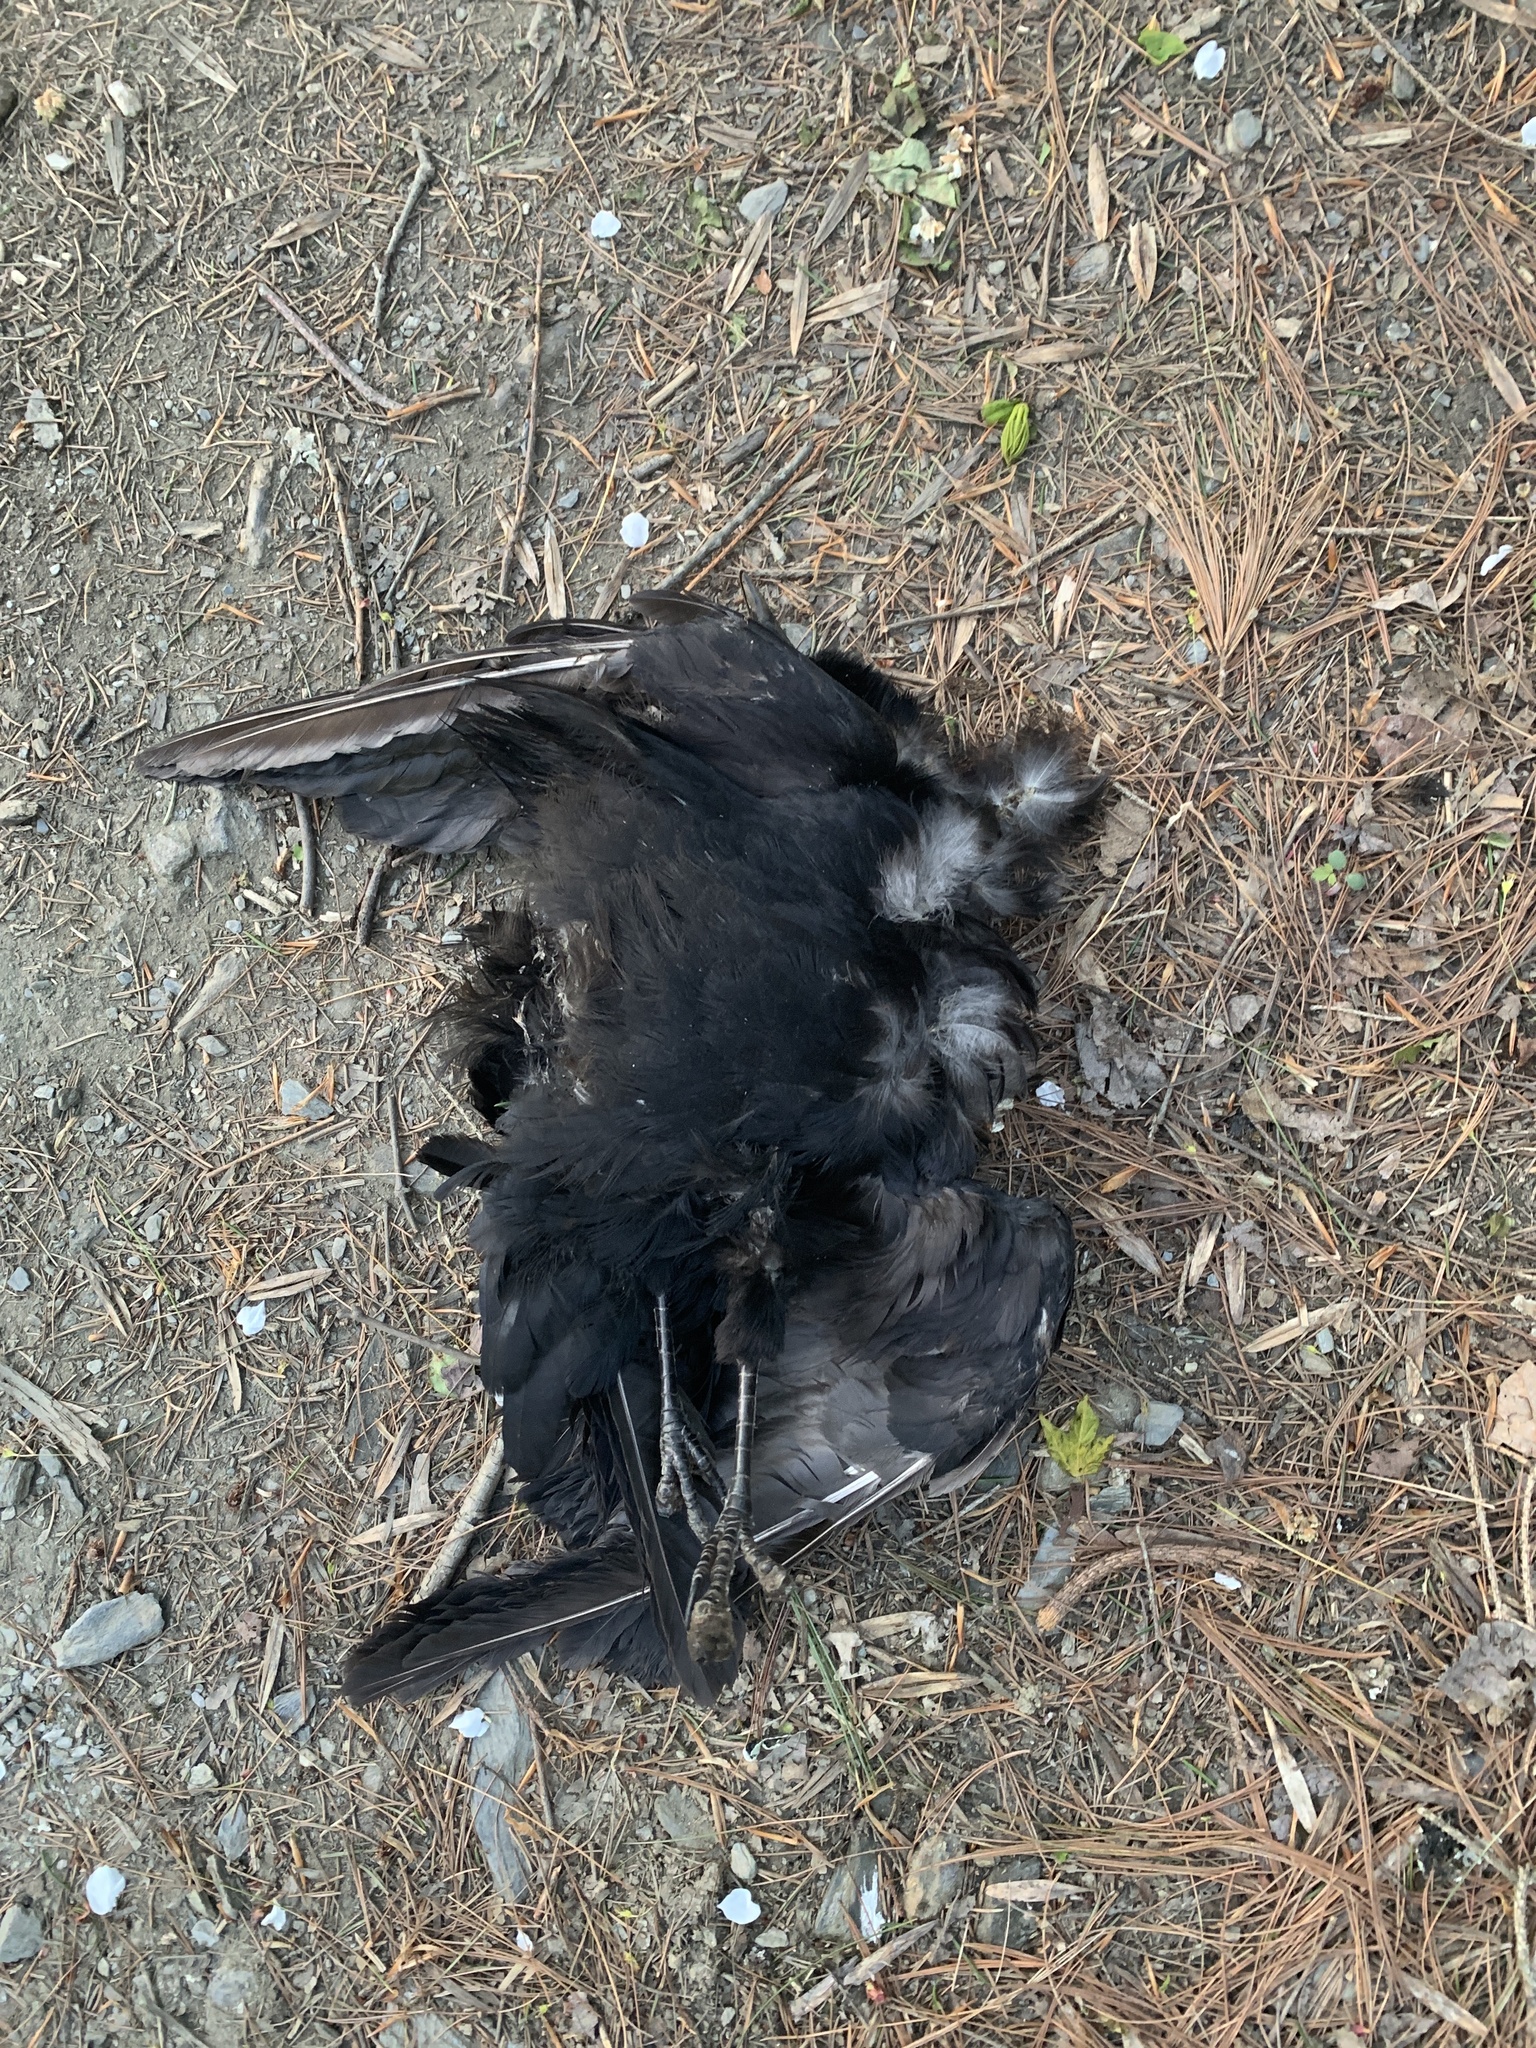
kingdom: Animalia
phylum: Chordata
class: Aves
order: Passeriformes
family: Corvidae
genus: Corvus
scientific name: Corvus brachyrhynchos
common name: American crow
